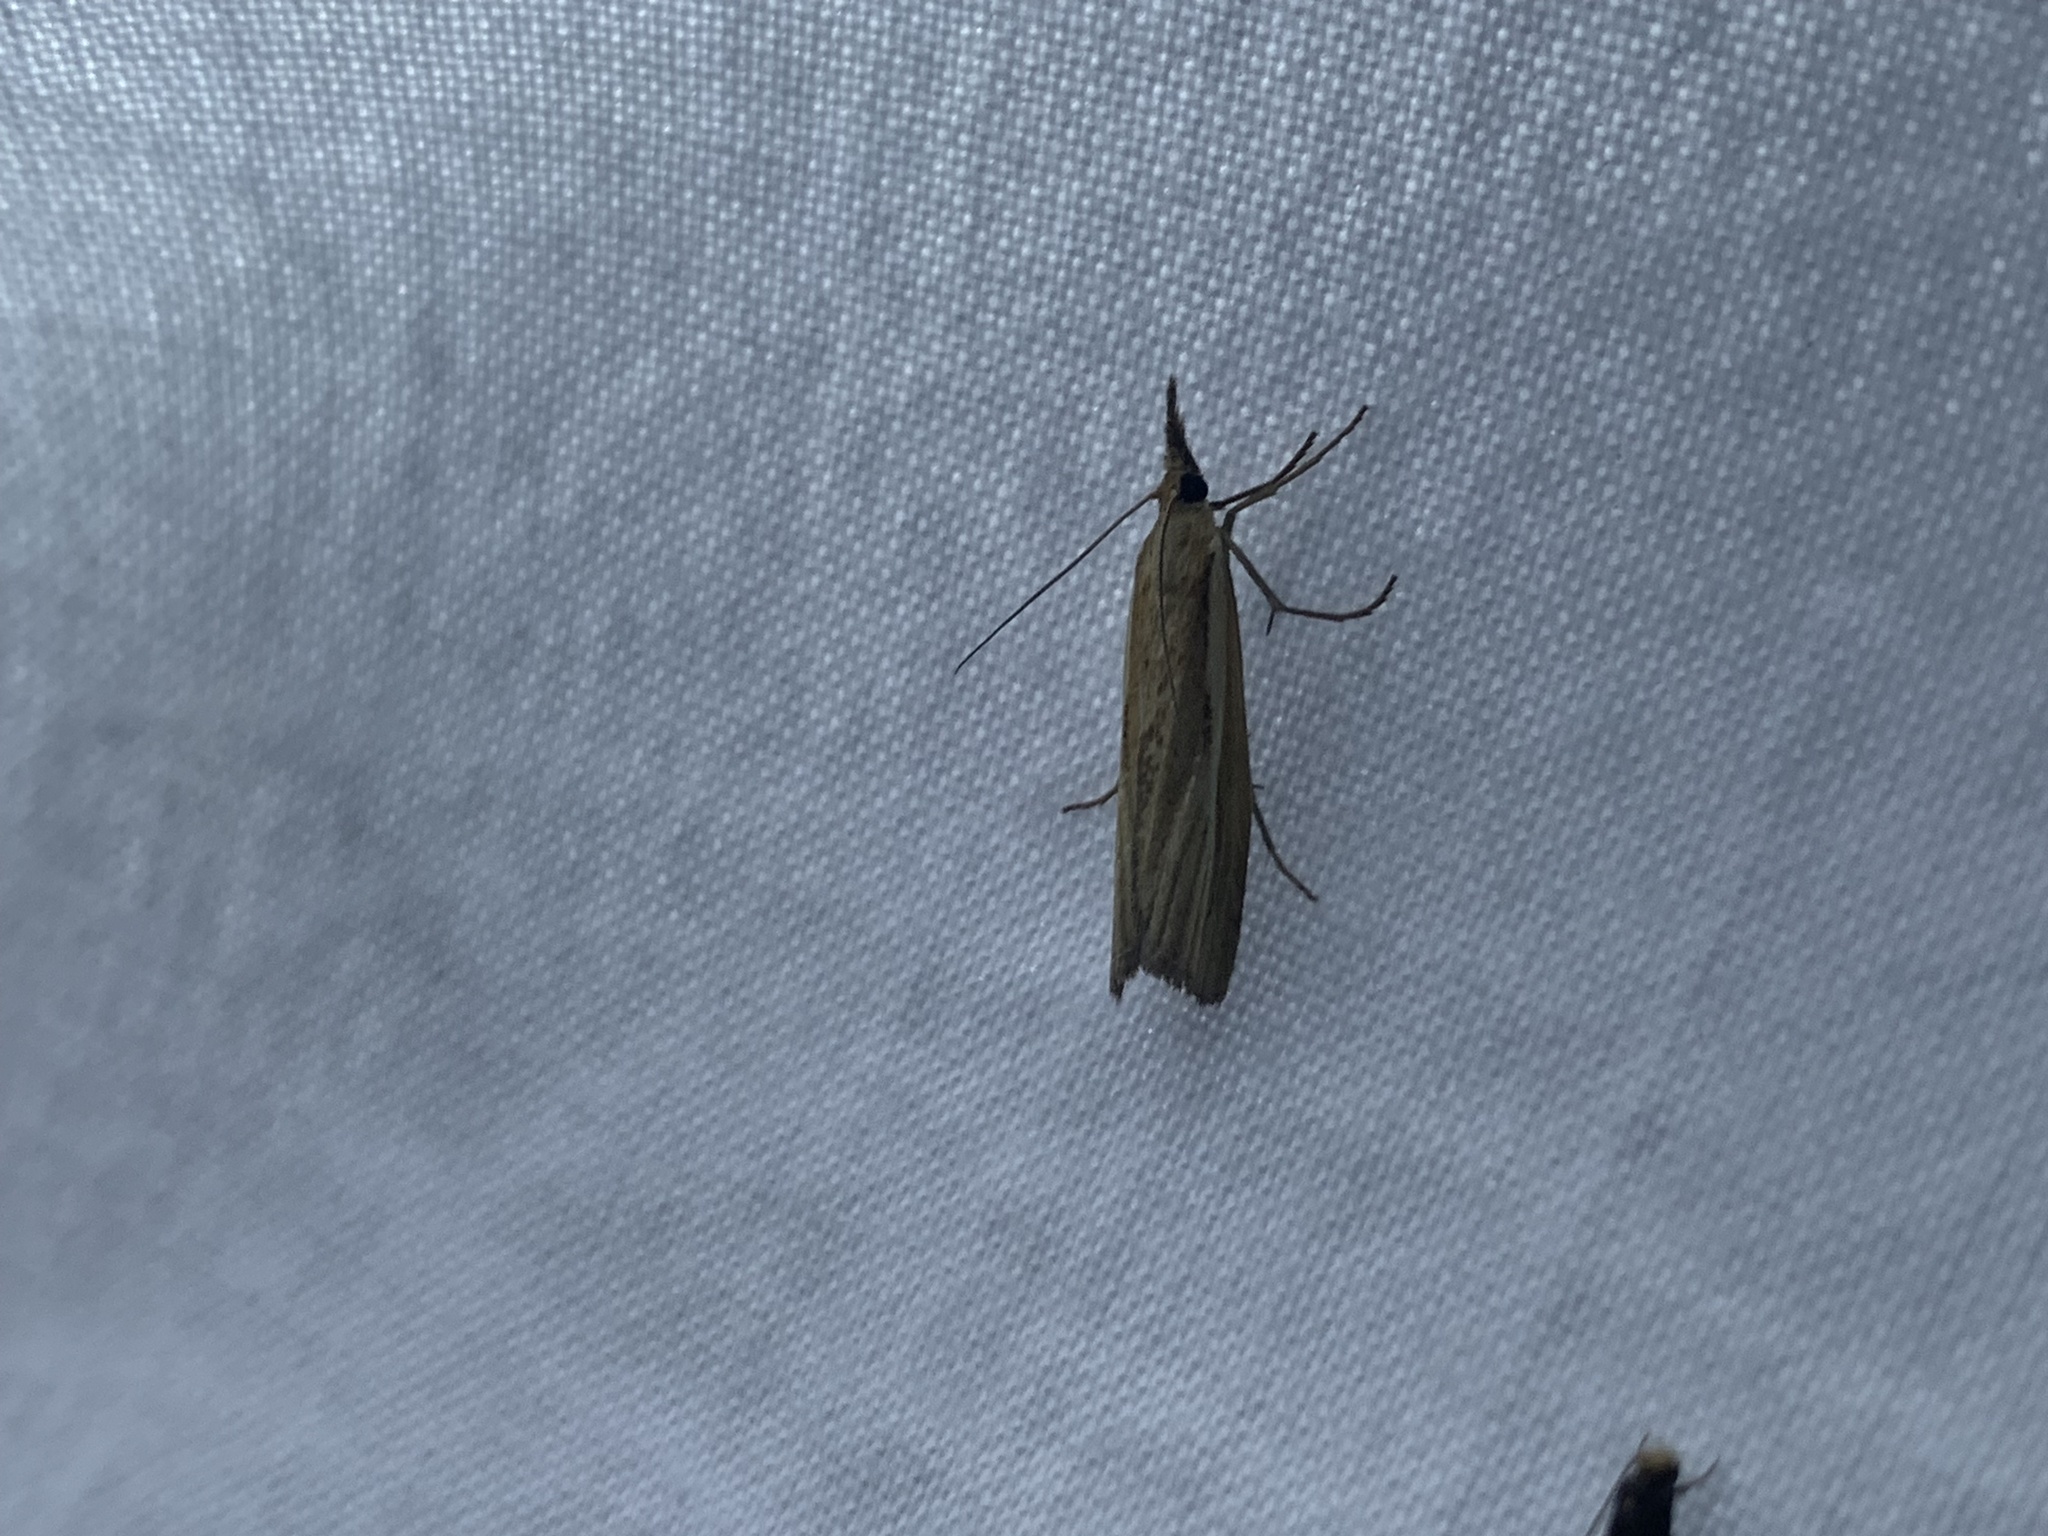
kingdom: Animalia
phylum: Arthropoda
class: Insecta
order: Lepidoptera
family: Crambidae
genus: Agriphila
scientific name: Agriphila tristellus
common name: Common grass-veneer
